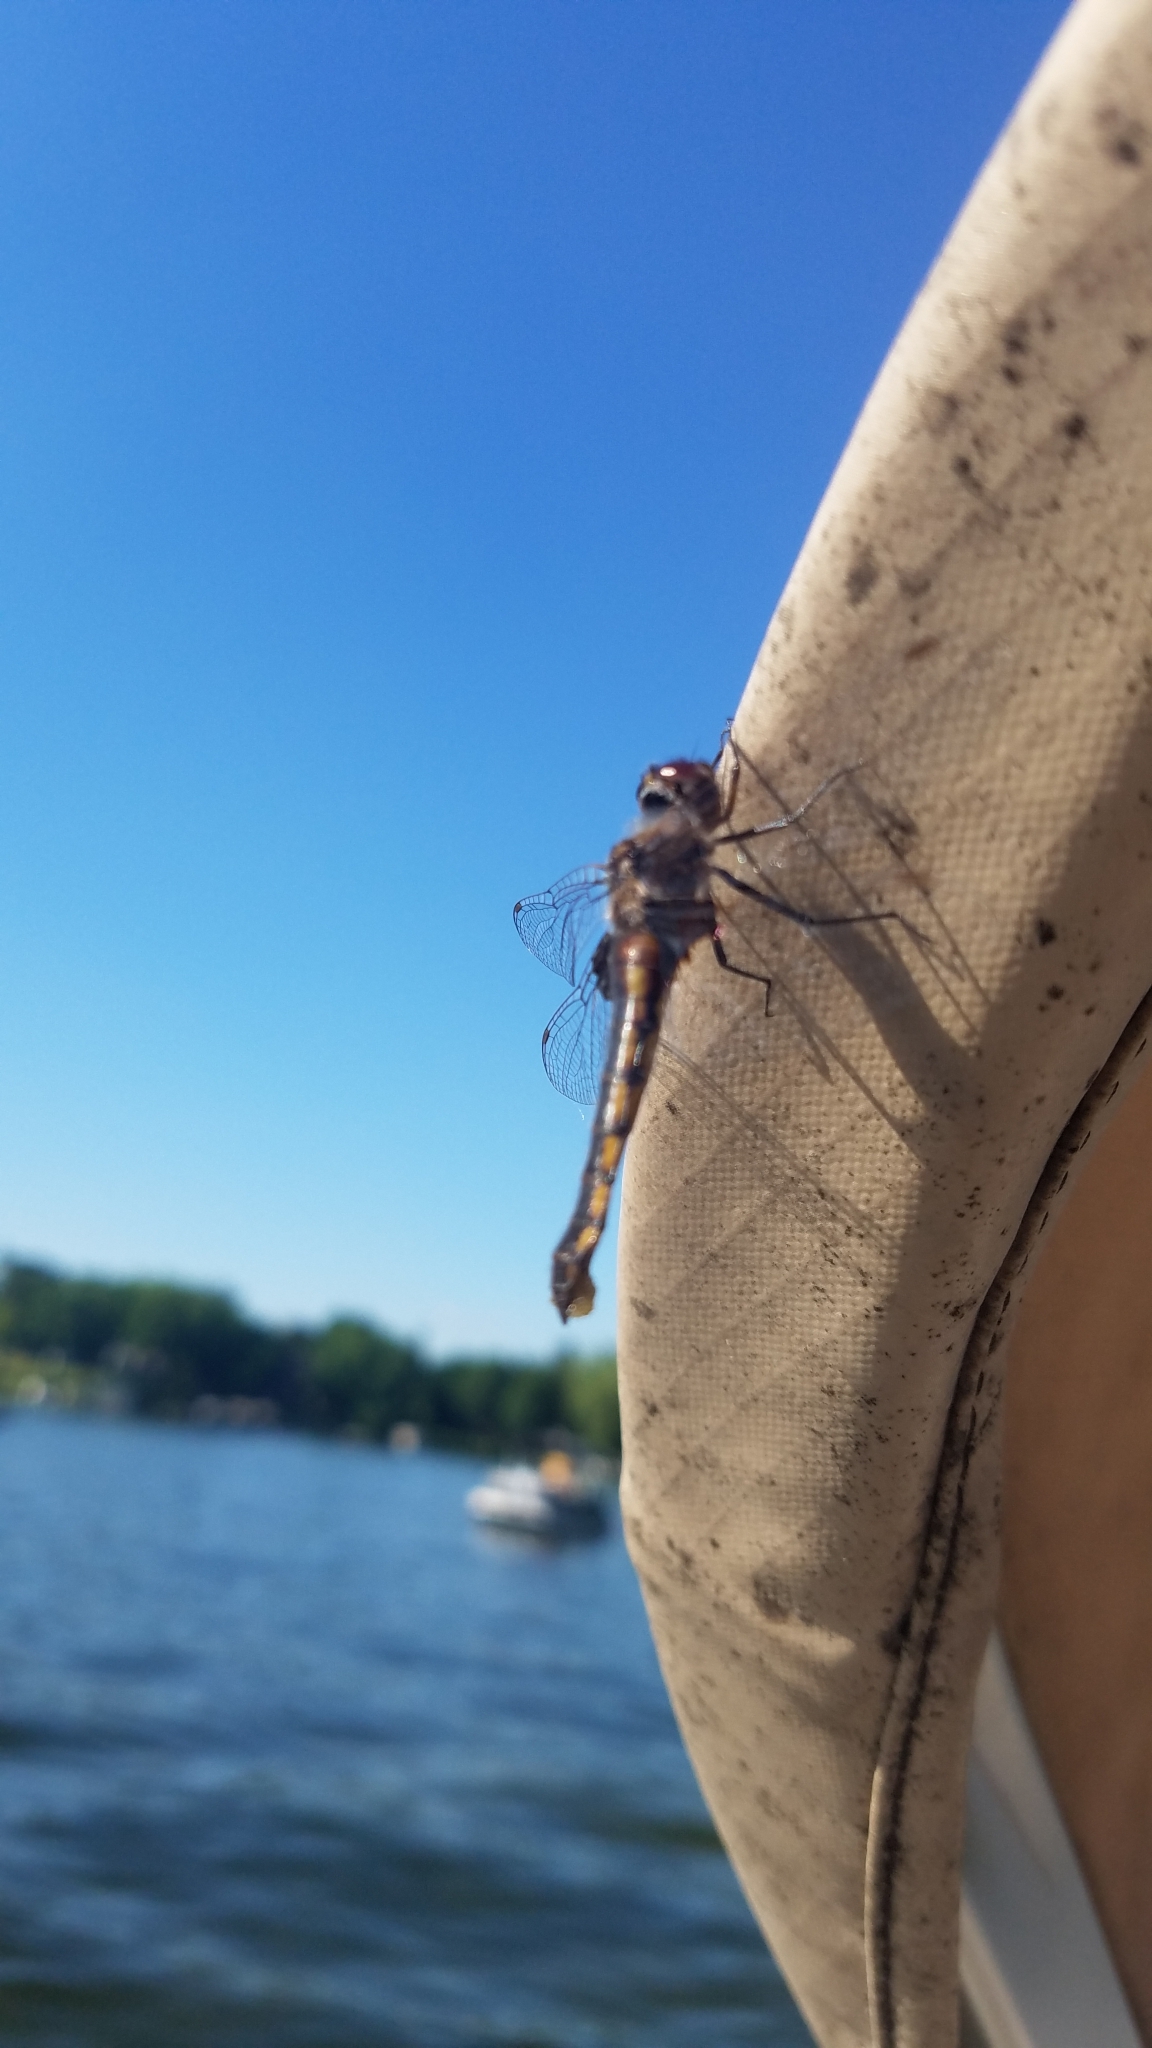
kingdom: Animalia
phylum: Arthropoda
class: Insecta
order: Odonata
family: Corduliidae
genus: Epitheca
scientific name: Epitheca cynosura
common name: Common baskettail
